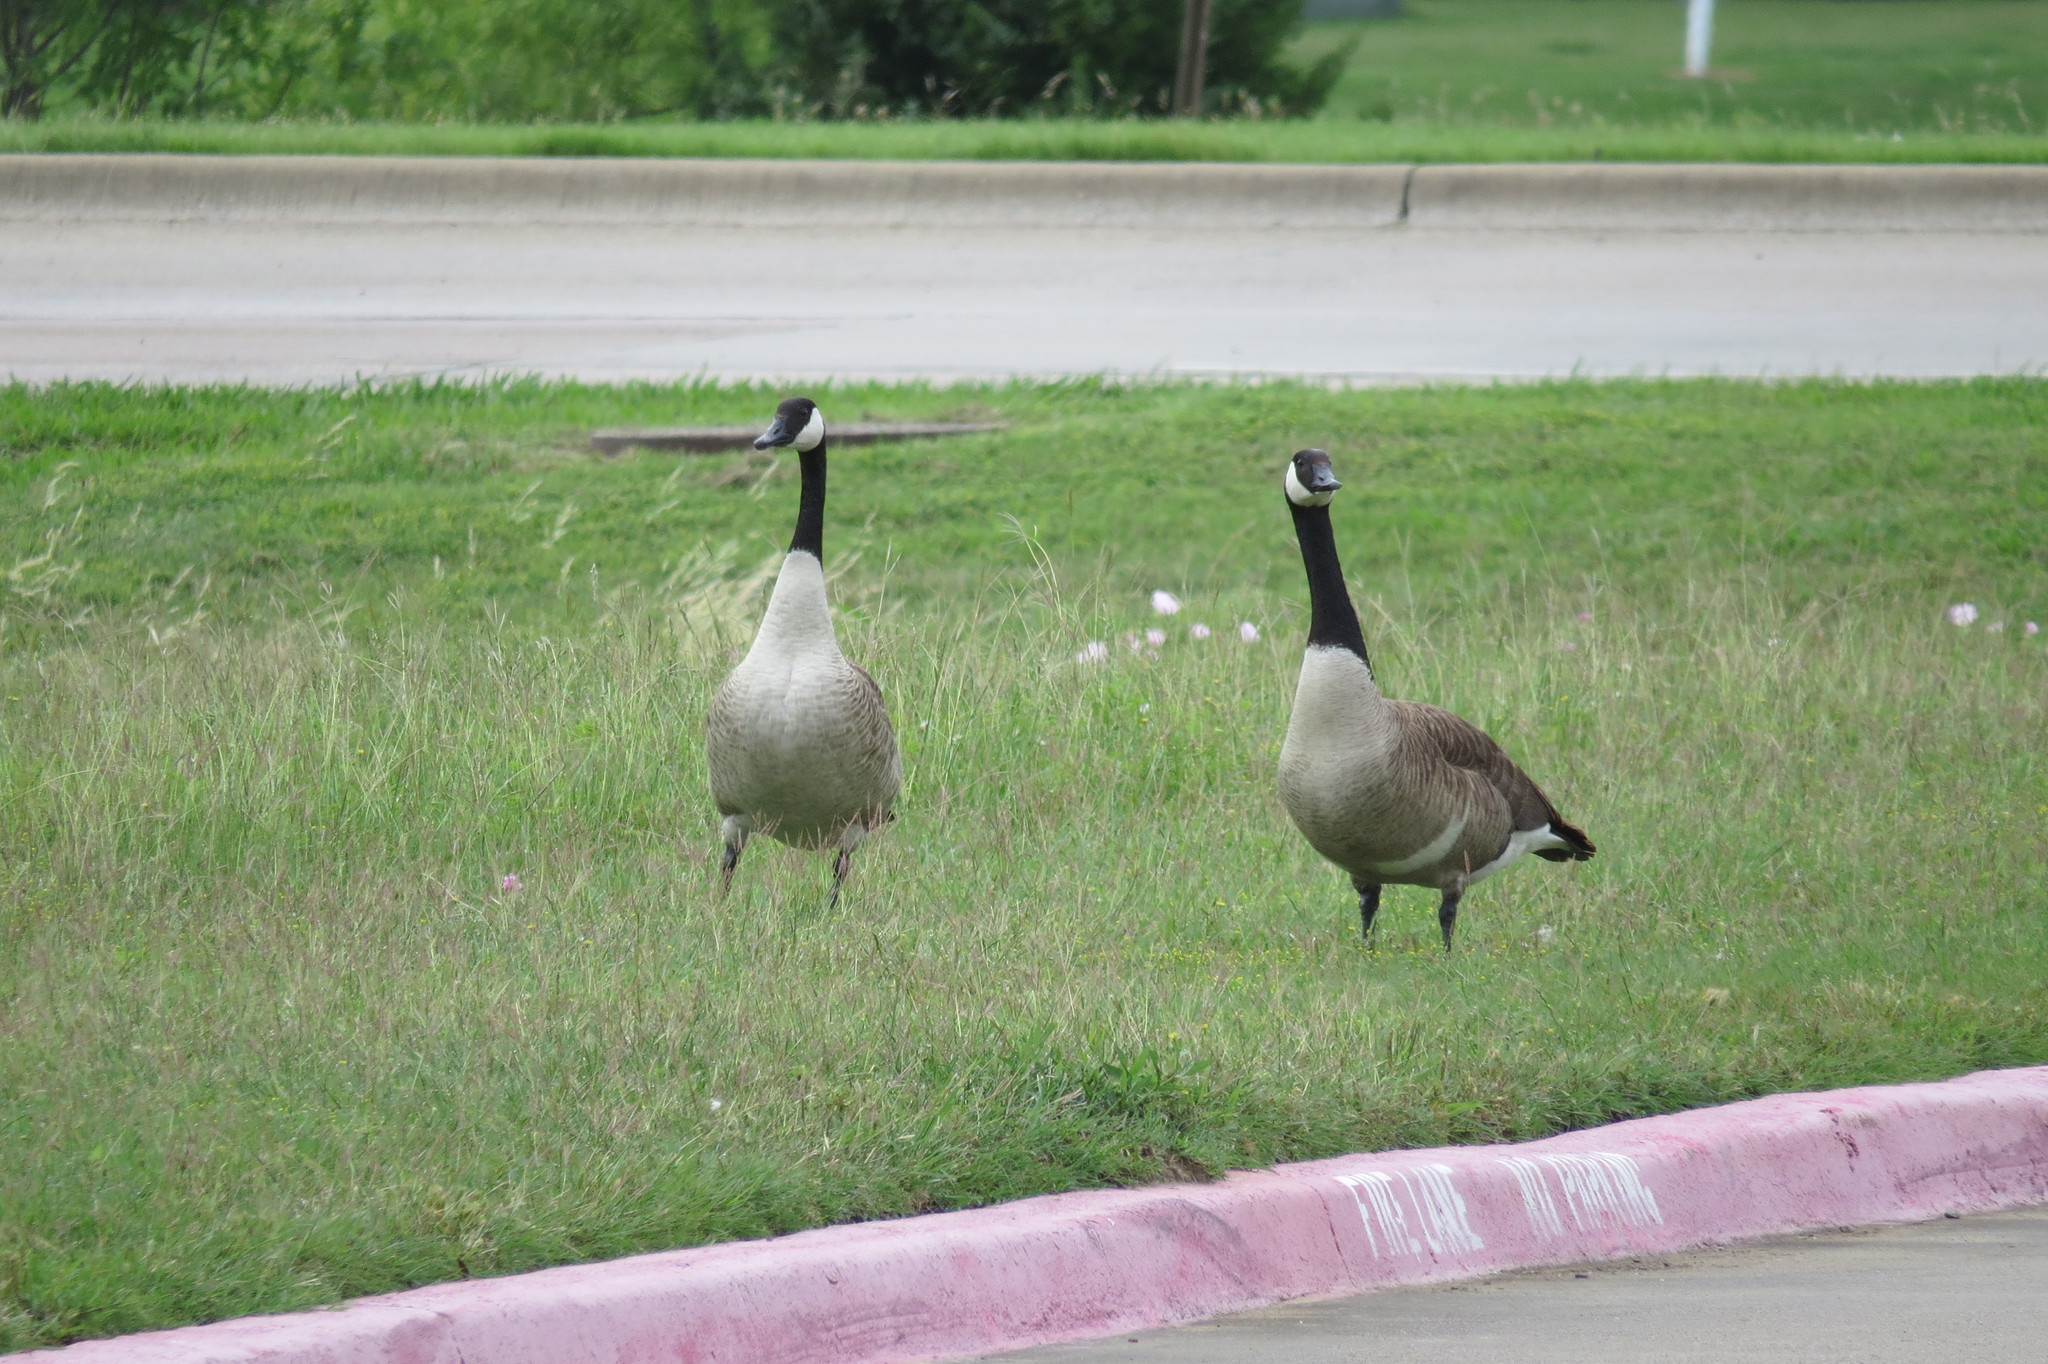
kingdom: Animalia
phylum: Chordata
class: Aves
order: Anseriformes
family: Anatidae
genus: Branta
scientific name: Branta canadensis
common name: Canada goose
